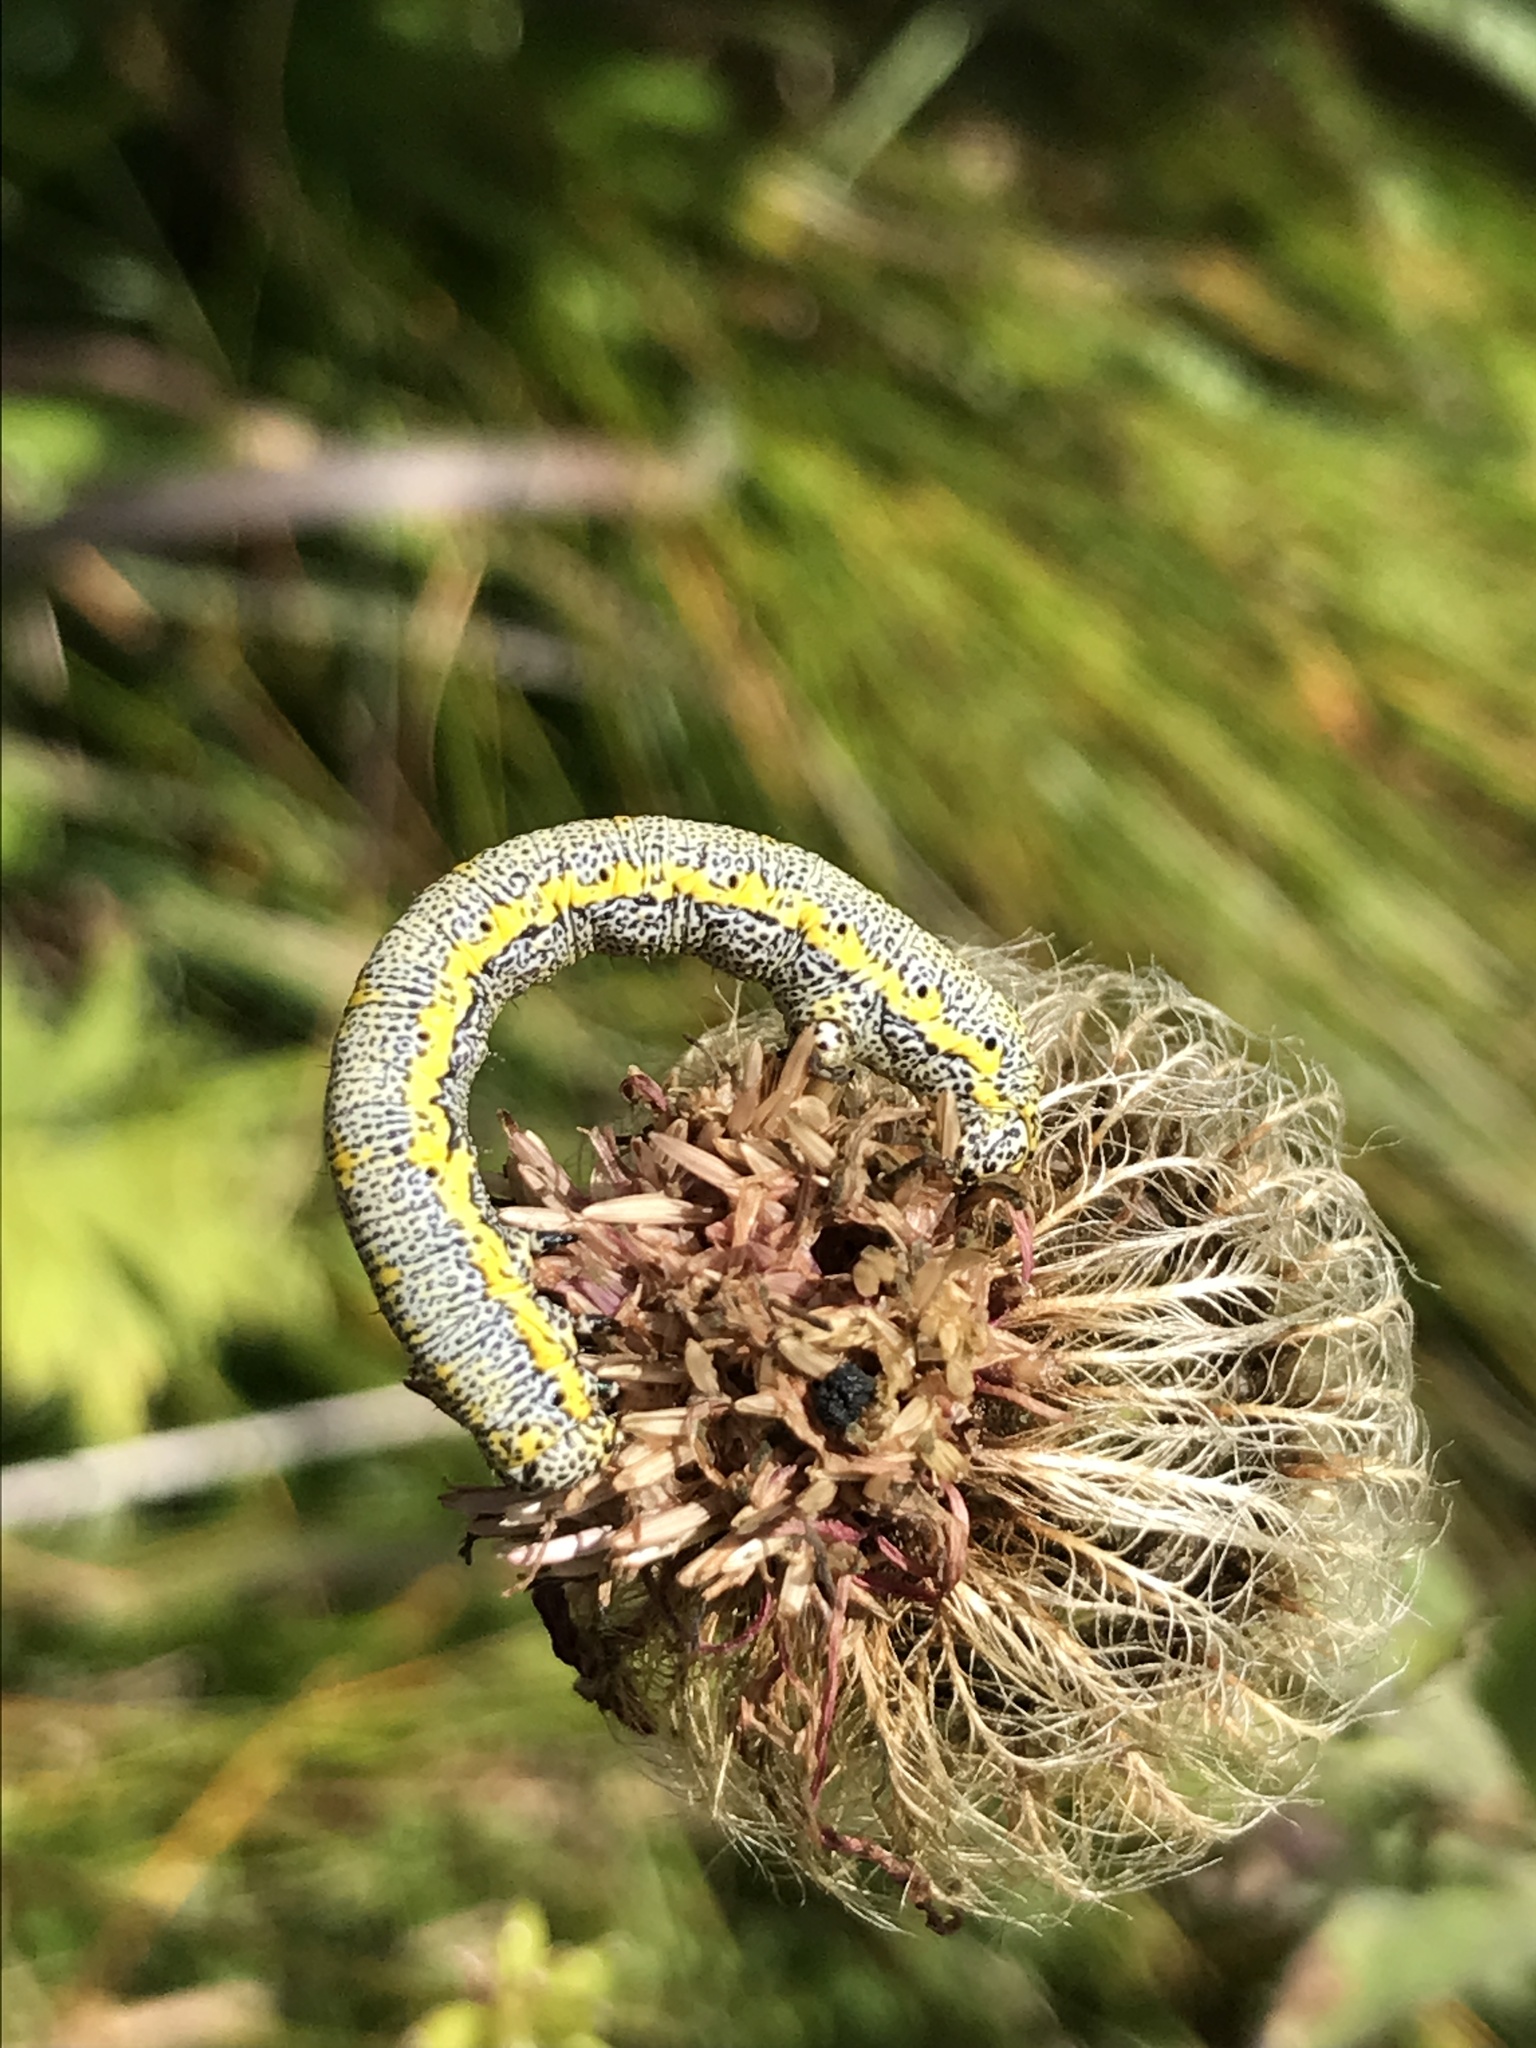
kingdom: Animalia
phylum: Arthropoda
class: Insecta
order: Lepidoptera
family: Geometridae
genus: Lycia
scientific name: Lycia alpina
